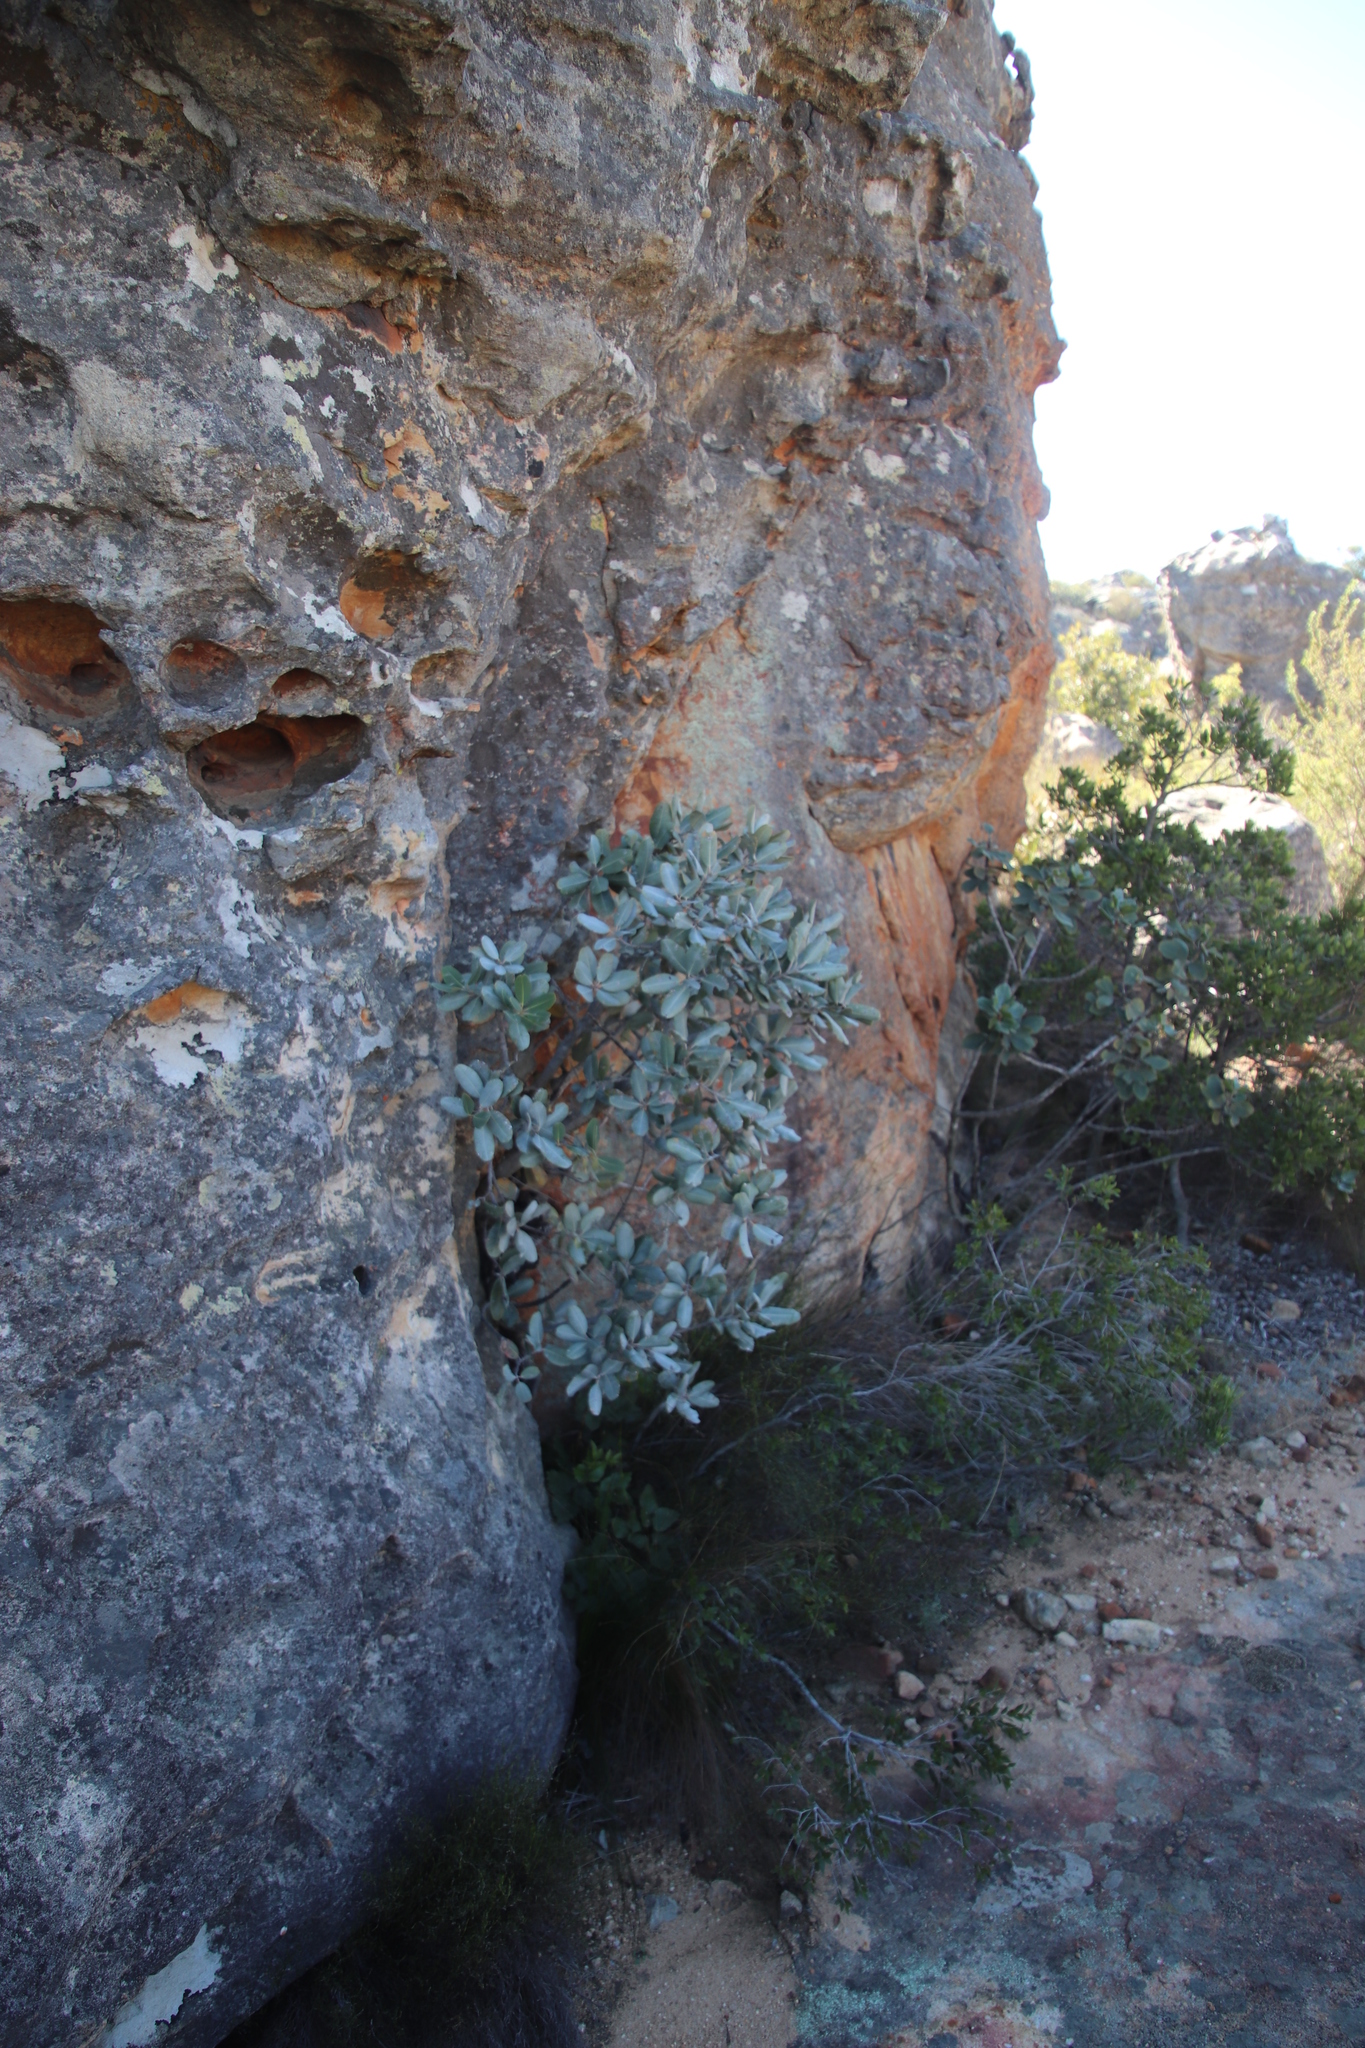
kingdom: Plantae
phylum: Tracheophyta
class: Magnoliopsida
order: Sapindales
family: Anacardiaceae
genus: Heeria
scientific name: Heeria argentea
